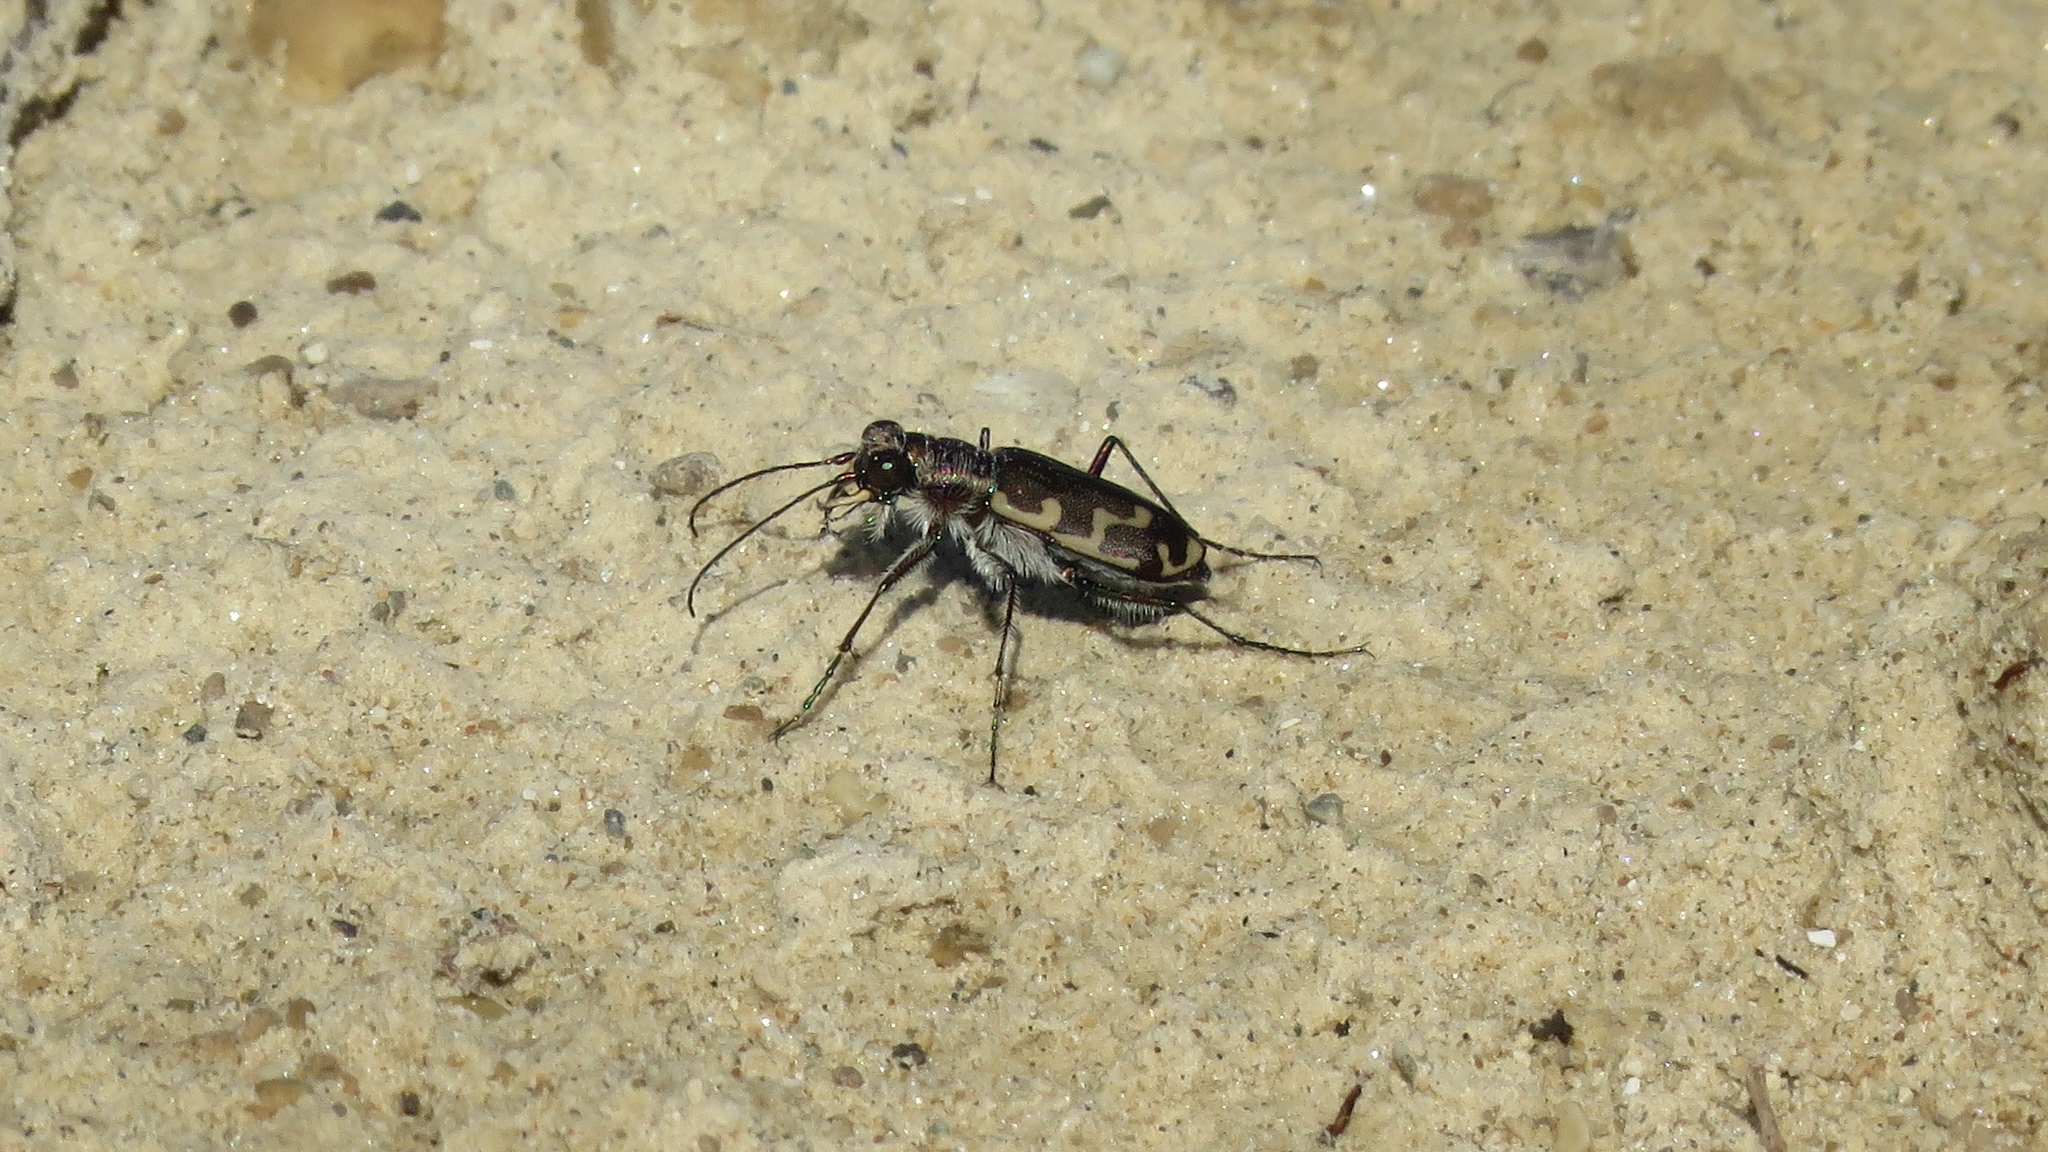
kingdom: Animalia
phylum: Arthropoda
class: Insecta
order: Coleoptera
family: Carabidae
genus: Cicindela
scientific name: Cicindela repanda
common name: Bronzed tiger beetle
